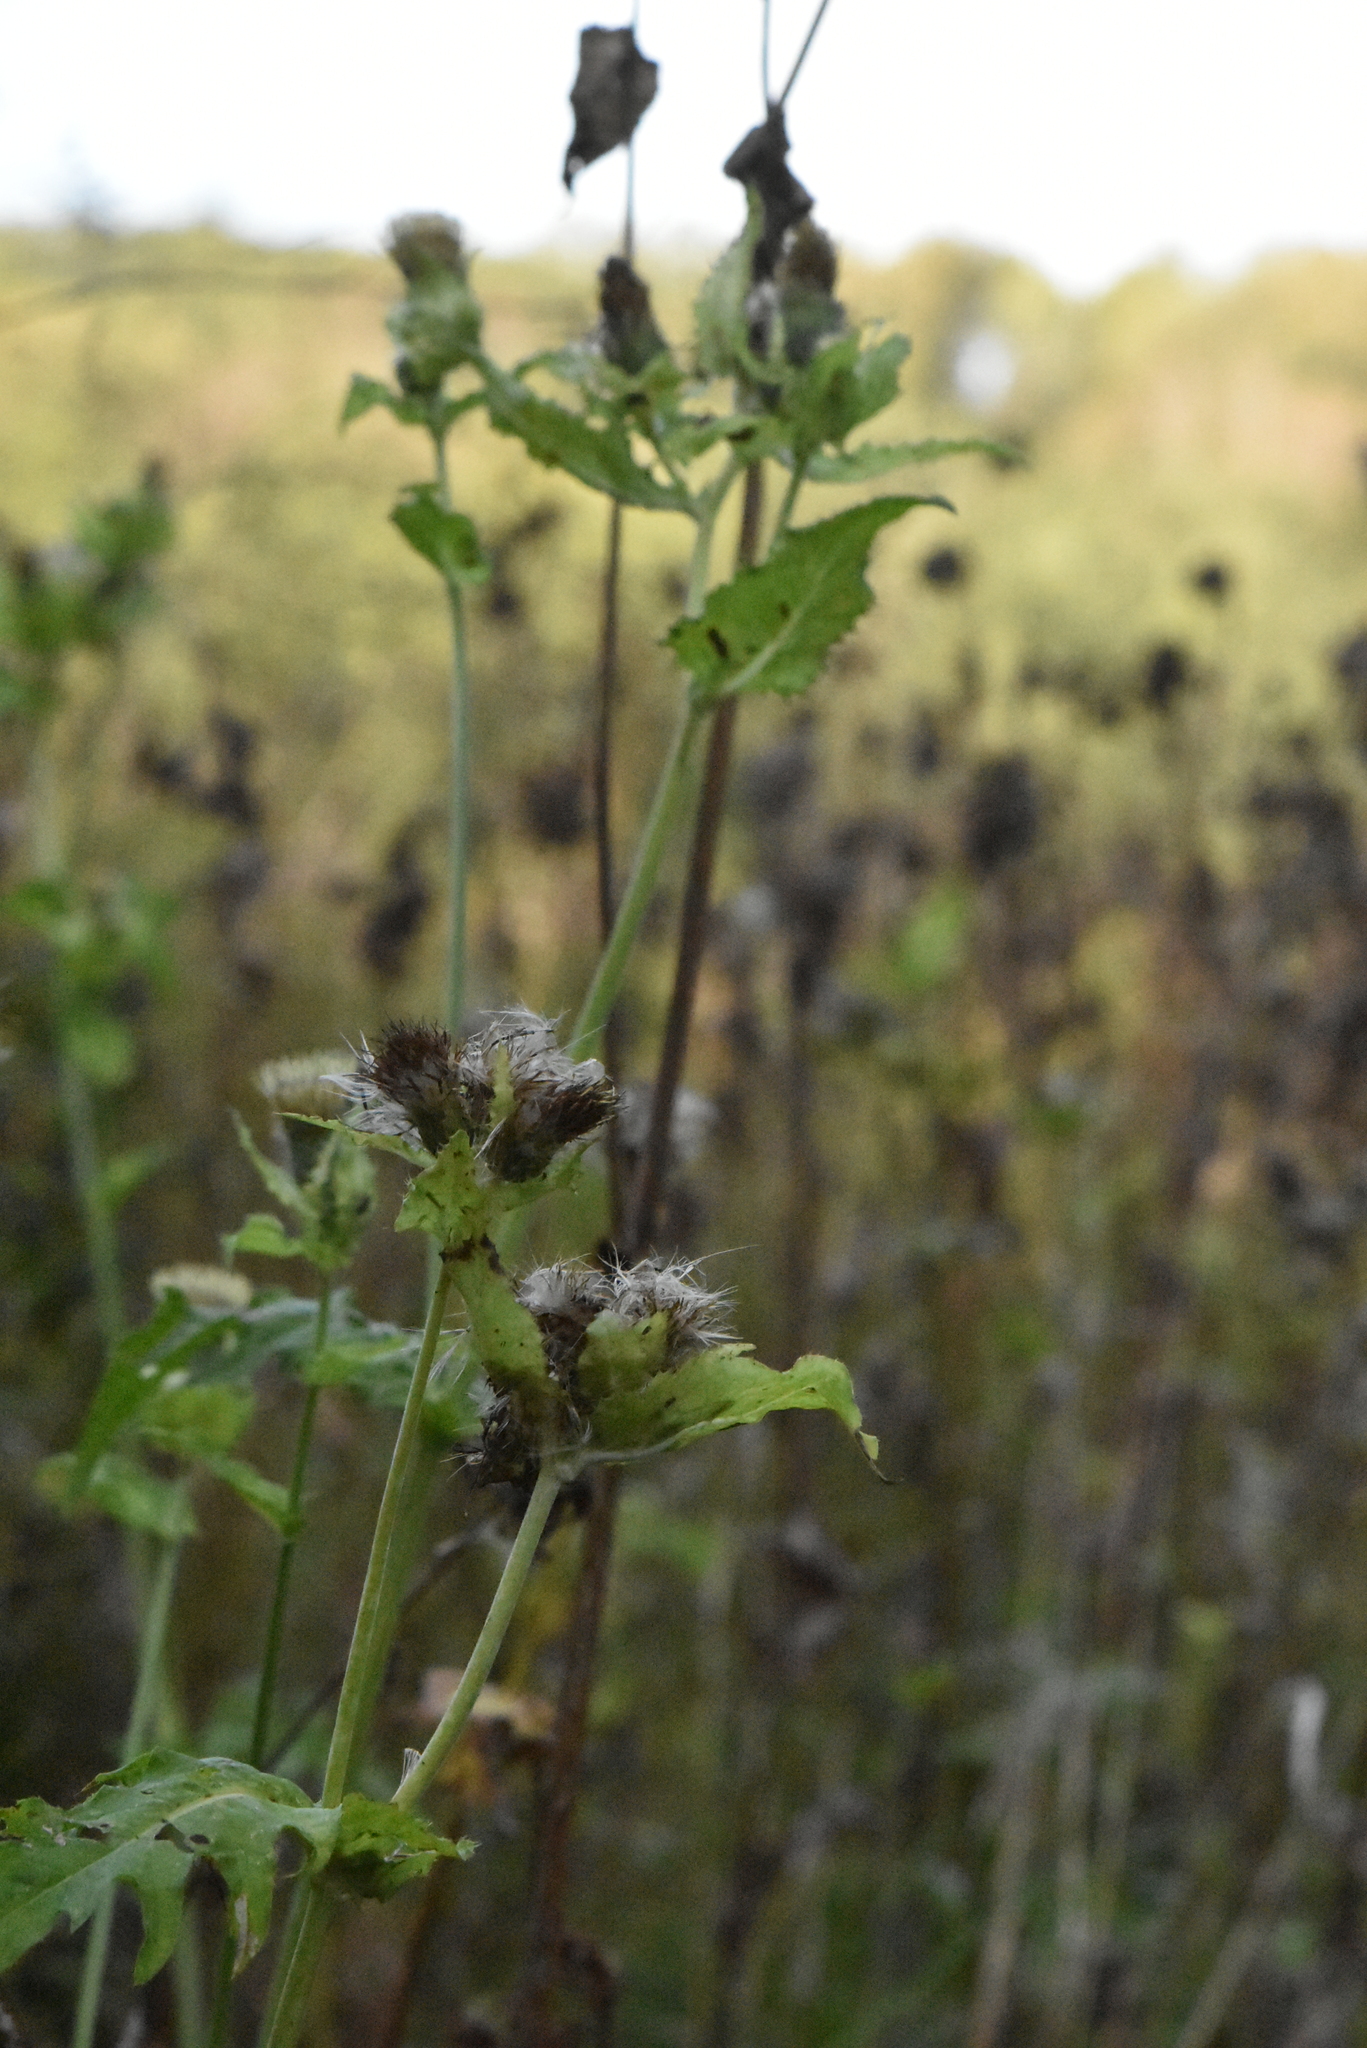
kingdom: Plantae
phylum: Tracheophyta
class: Magnoliopsida
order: Asterales
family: Asteraceae
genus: Cirsium
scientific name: Cirsium oleraceum
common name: Cabbage thistle
